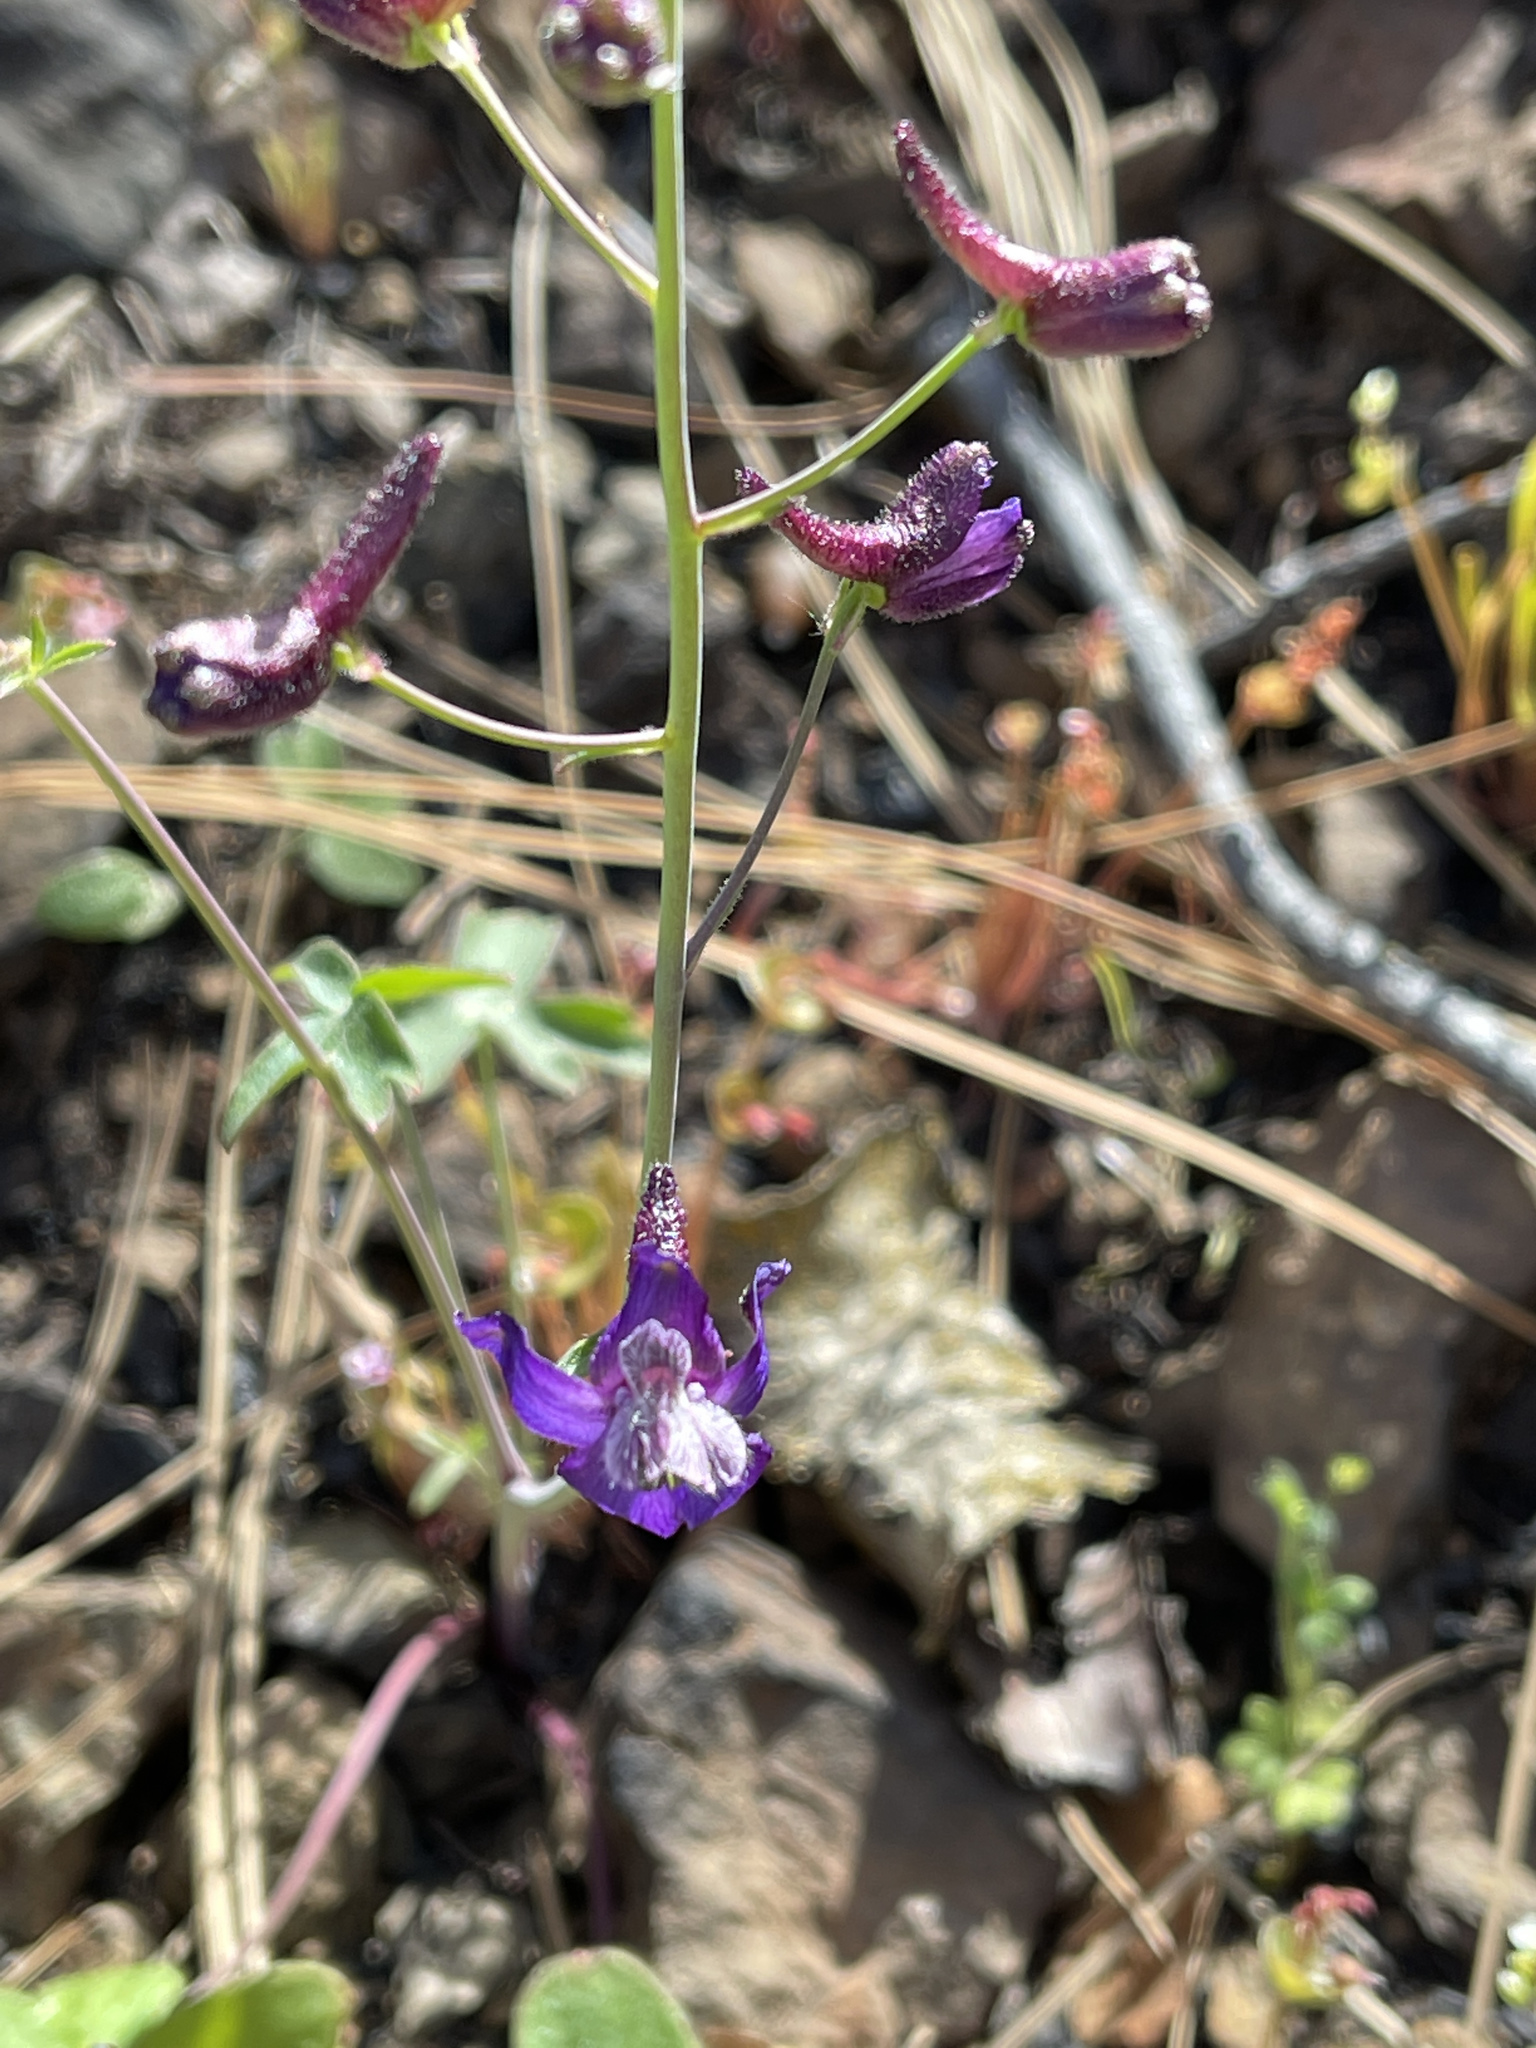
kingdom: Plantae
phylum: Tracheophyta
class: Magnoliopsida
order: Ranunculales
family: Ranunculaceae
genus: Delphinium
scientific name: Delphinium patens
